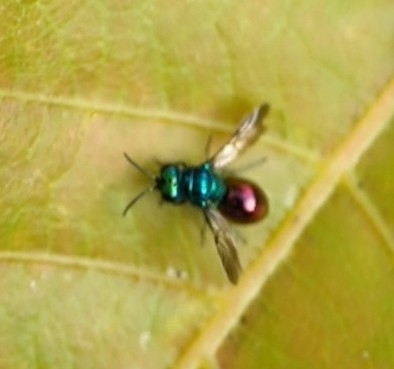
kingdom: Animalia
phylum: Arthropoda
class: Insecta
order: Hymenoptera
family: Chrysididae
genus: Pseudomalus
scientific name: Pseudomalus auratus
